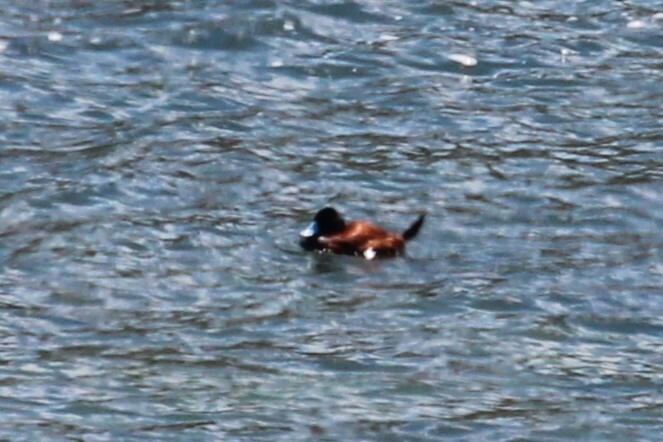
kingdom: Animalia
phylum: Chordata
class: Aves
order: Anseriformes
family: Anatidae
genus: Oxyura
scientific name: Oxyura ferruginea
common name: Andean duck
